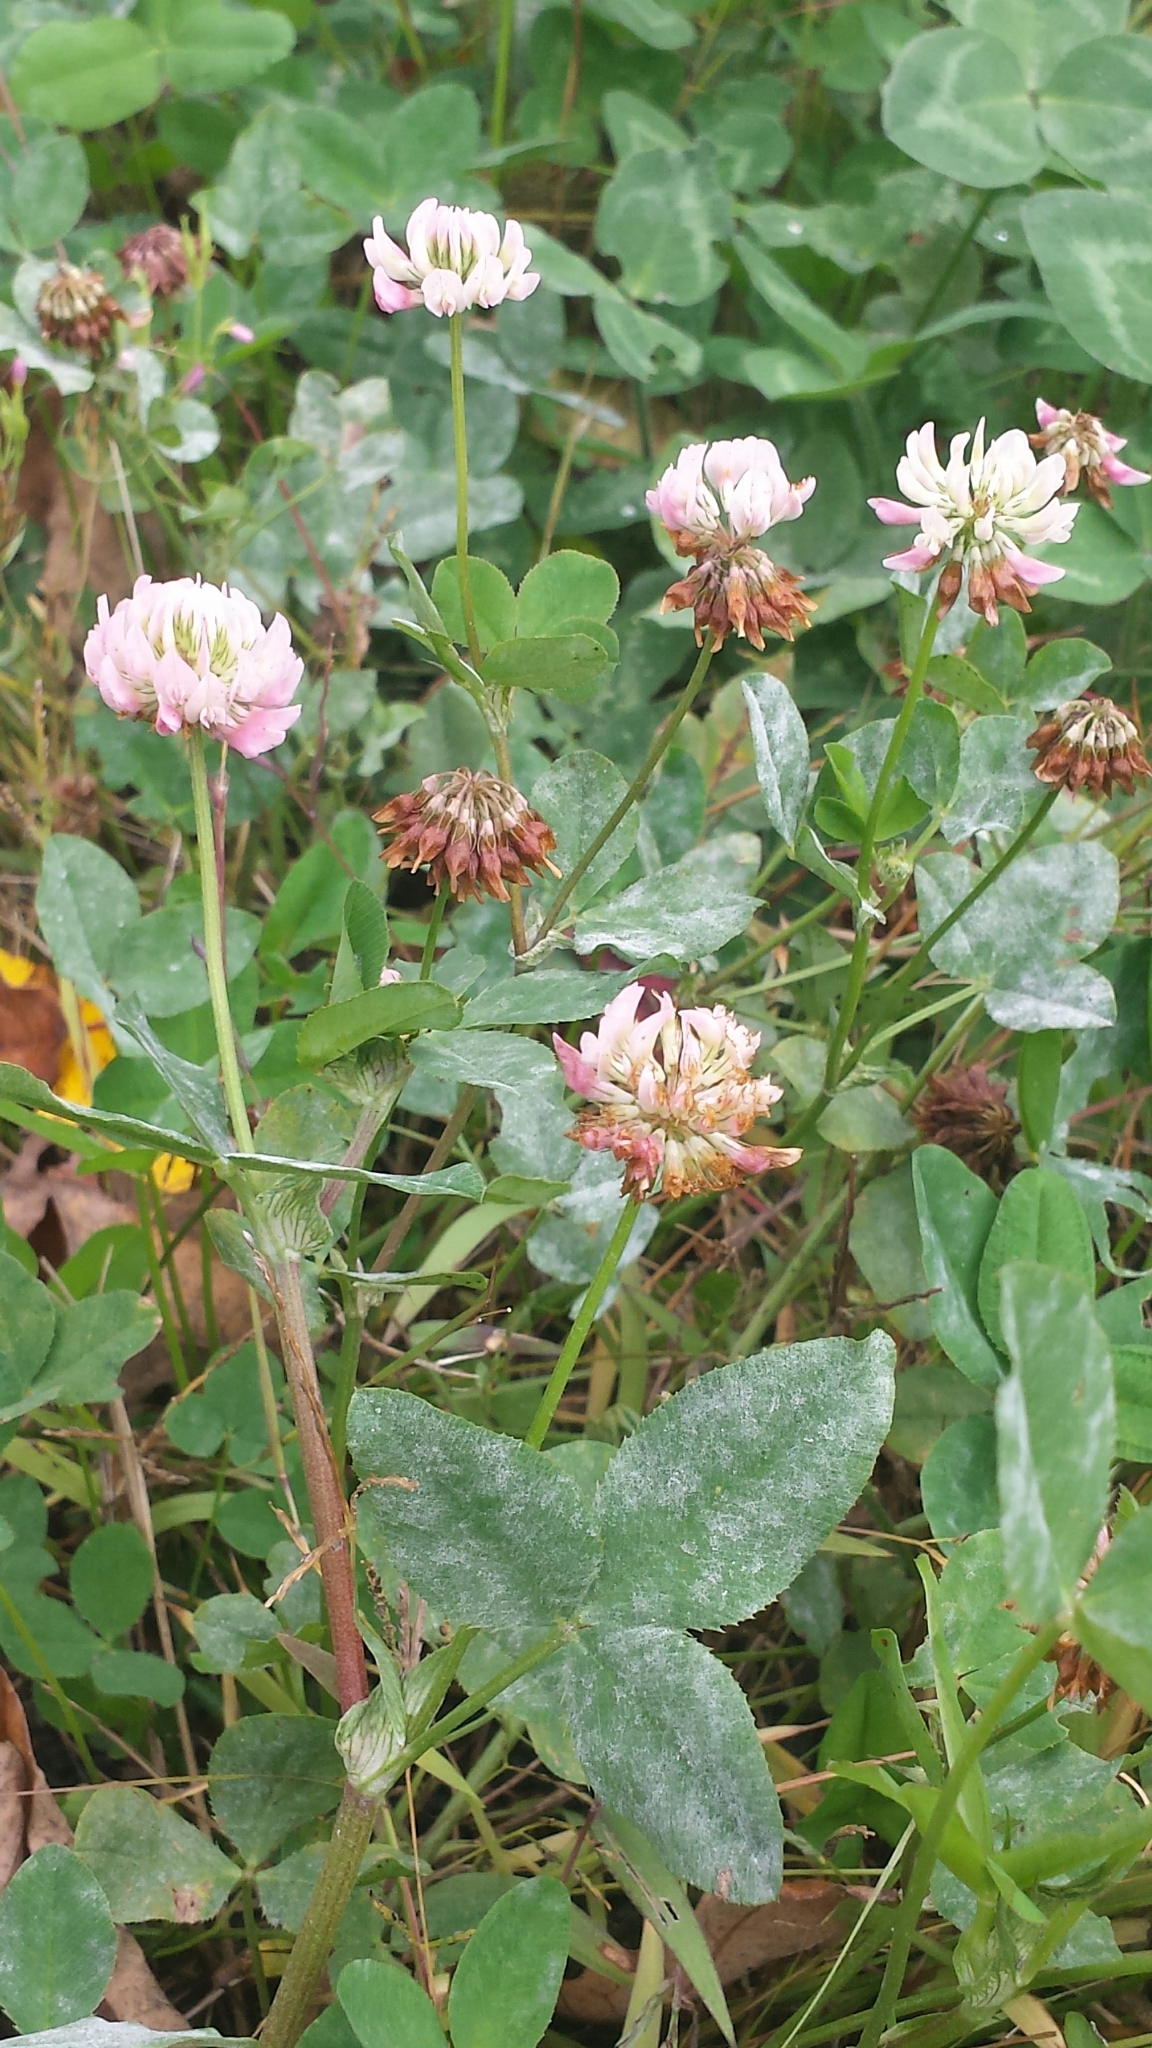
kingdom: Plantae
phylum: Tracheophyta
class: Magnoliopsida
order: Fabales
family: Fabaceae
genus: Trifolium
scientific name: Trifolium hybridum
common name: Alsike clover
